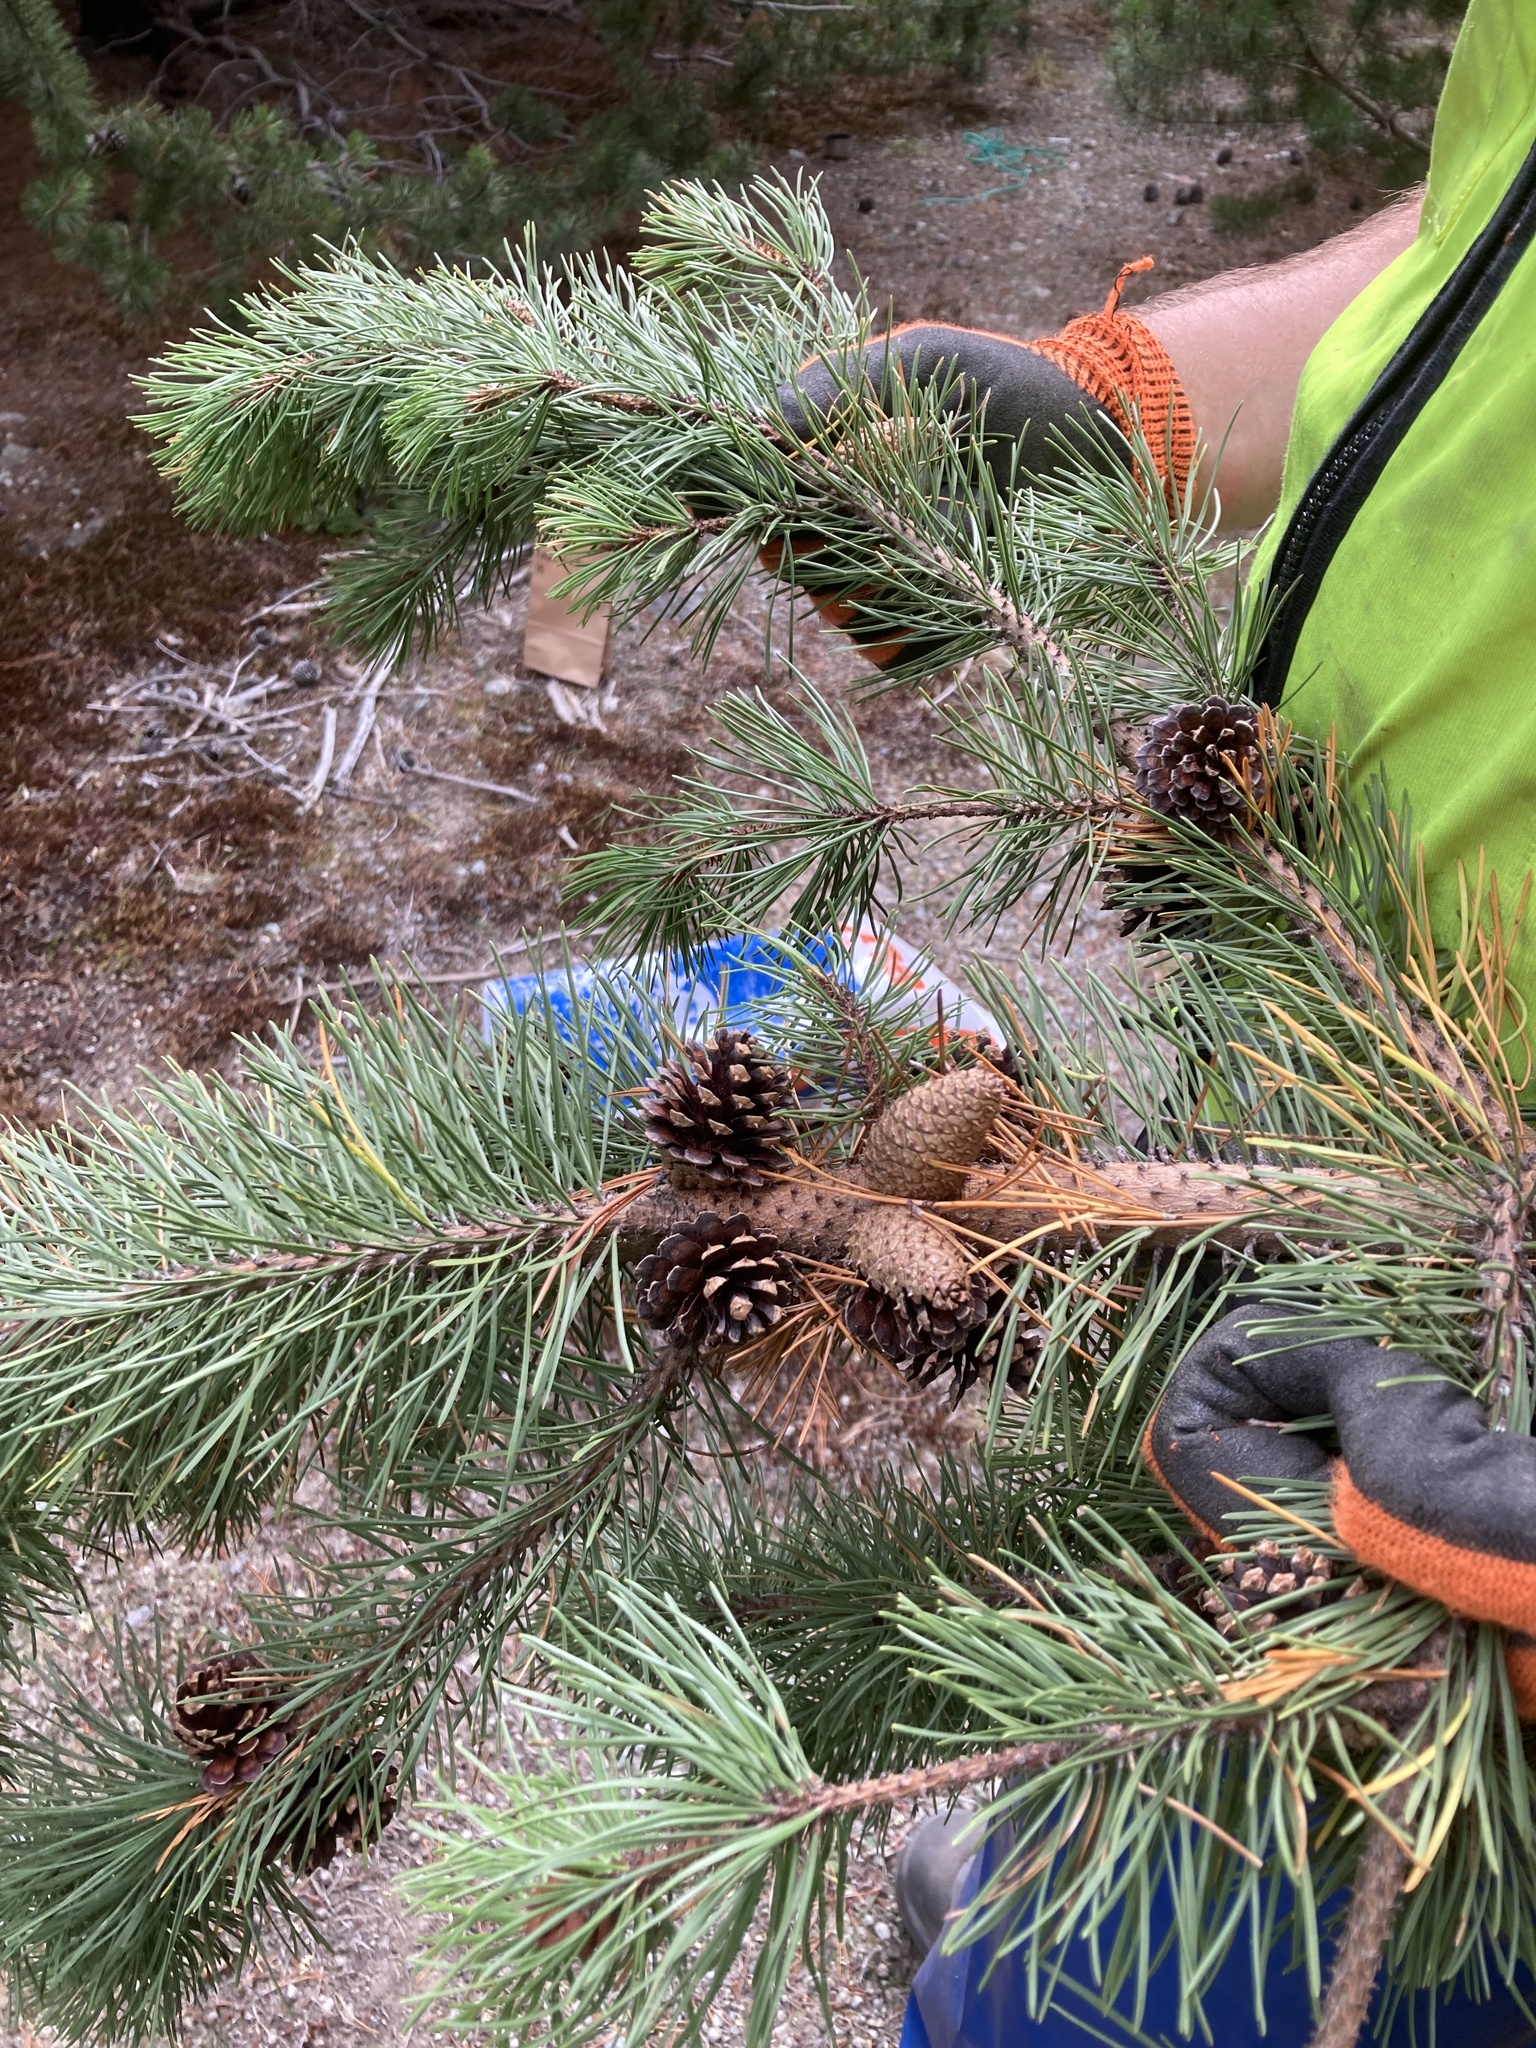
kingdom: Plantae
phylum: Tracheophyta
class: Pinopsida
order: Pinales
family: Pinaceae
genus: Pinus
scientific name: Pinus contorta
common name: Lodgepole pine
